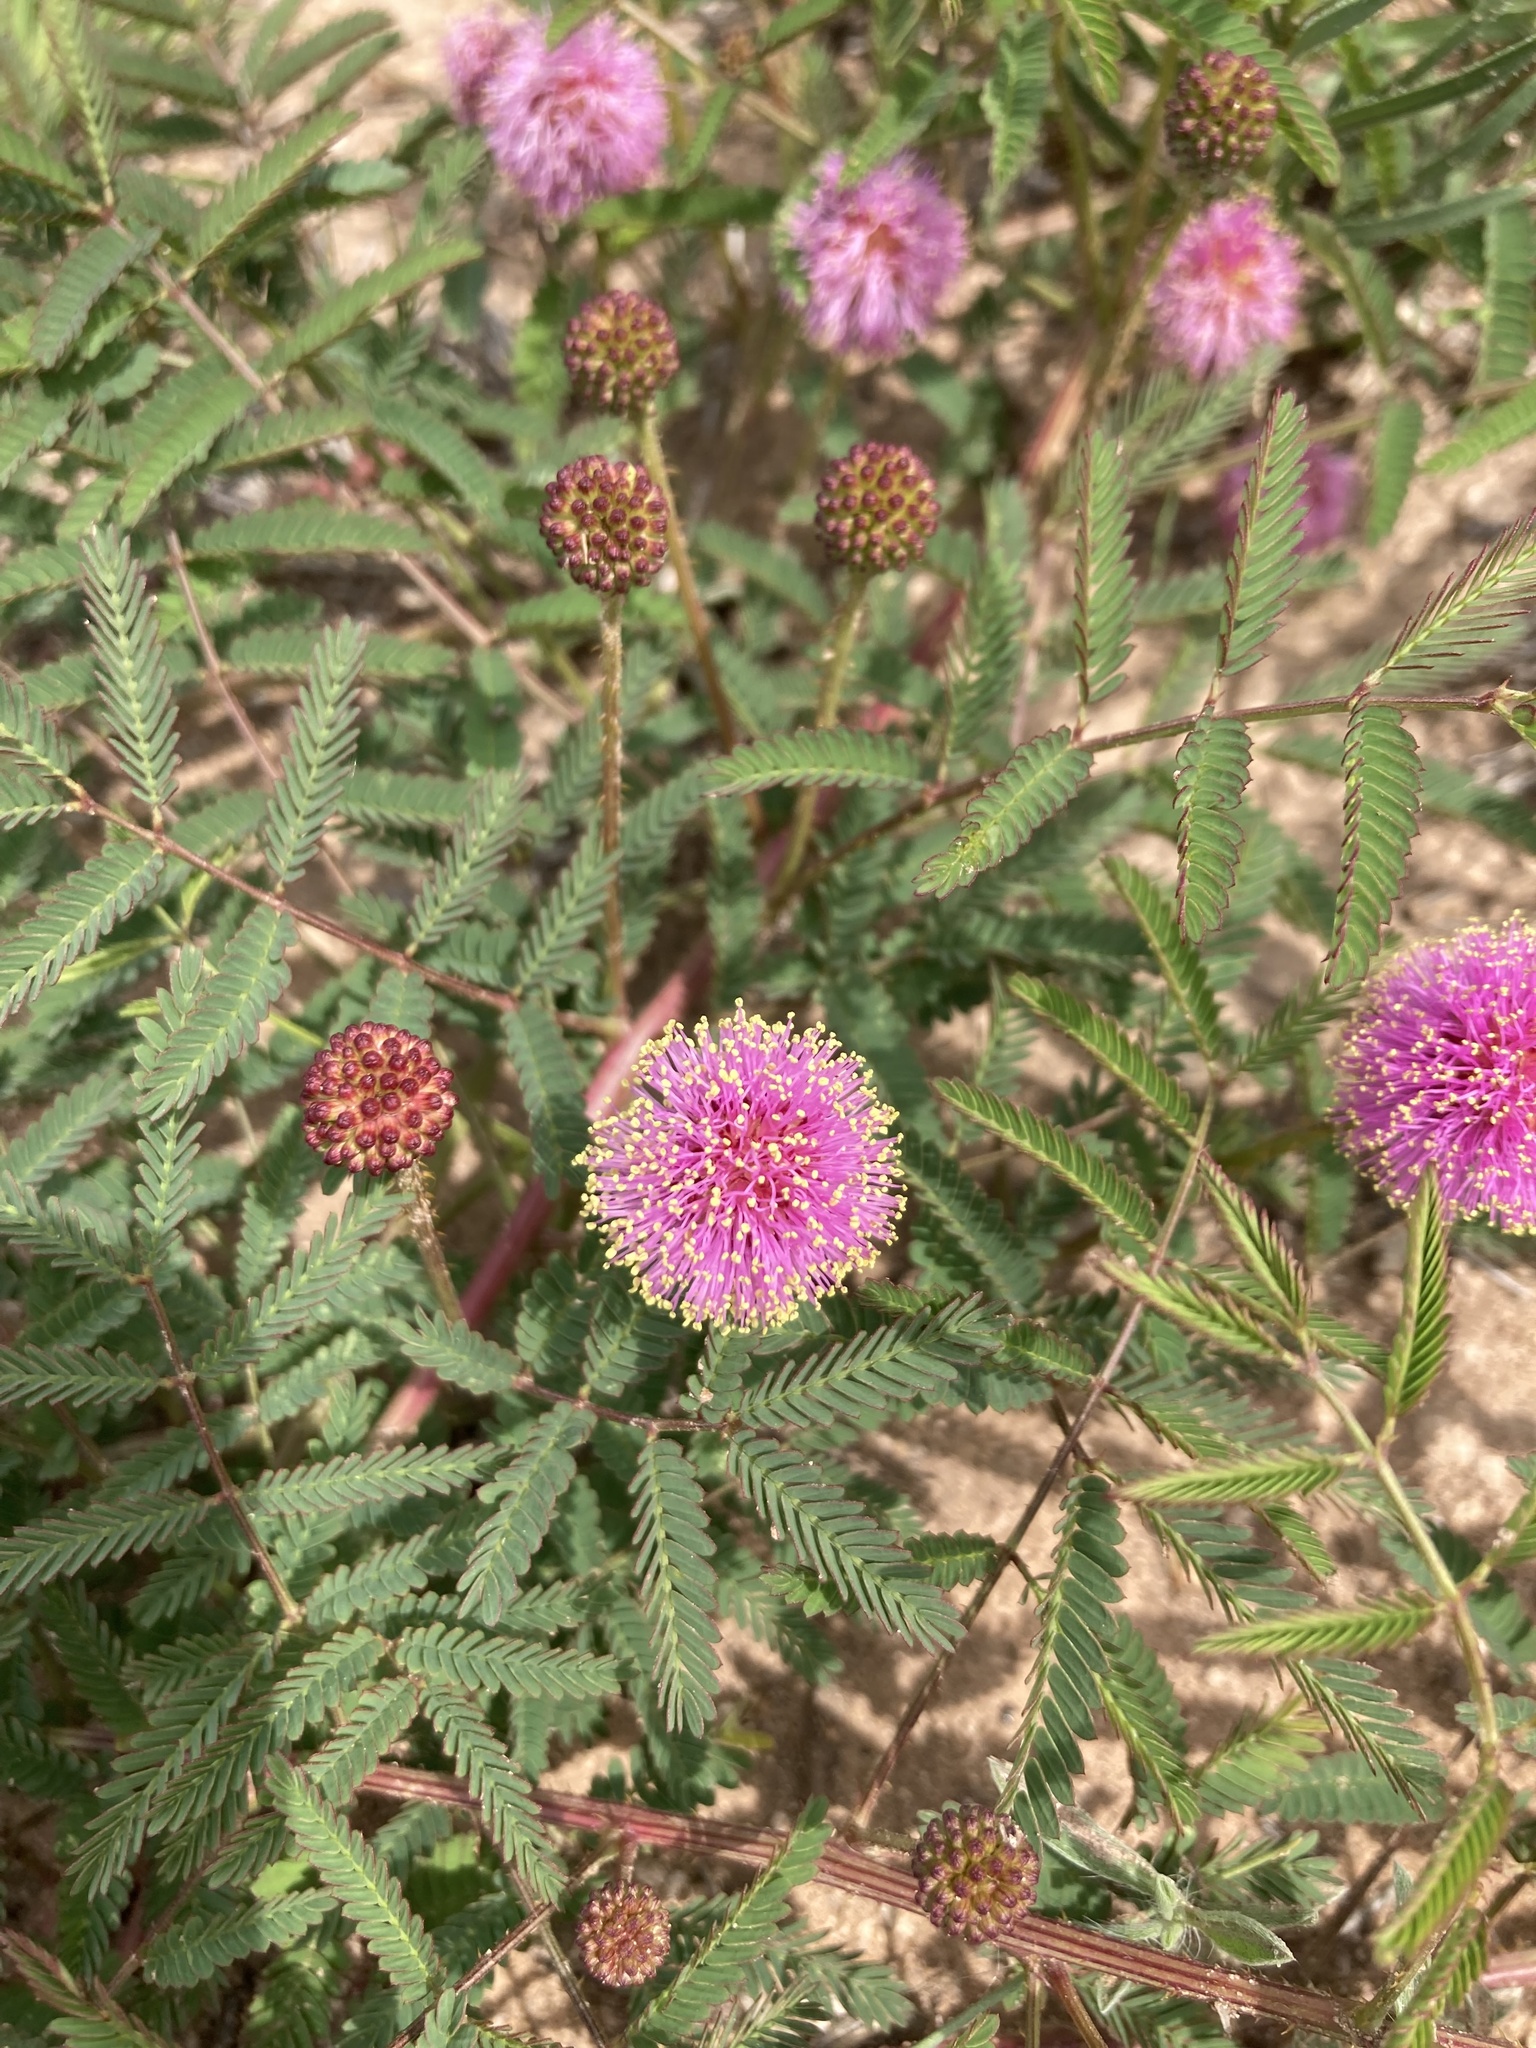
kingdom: Plantae
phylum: Tracheophyta
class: Magnoliopsida
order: Fabales
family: Fabaceae
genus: Mimosa
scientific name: Mimosa quadrivalvis
